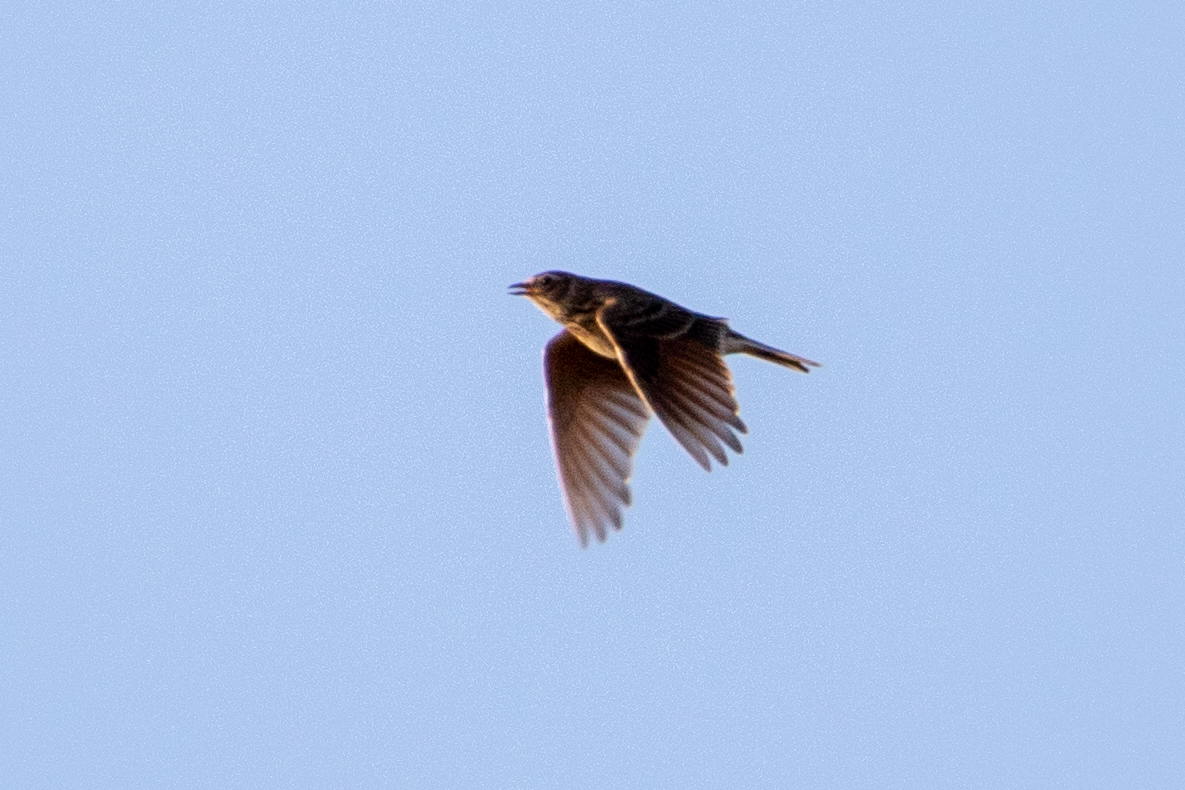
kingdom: Animalia
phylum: Chordata
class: Aves
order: Passeriformes
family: Alaudidae
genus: Alauda
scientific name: Alauda arvensis
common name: Eurasian skylark
